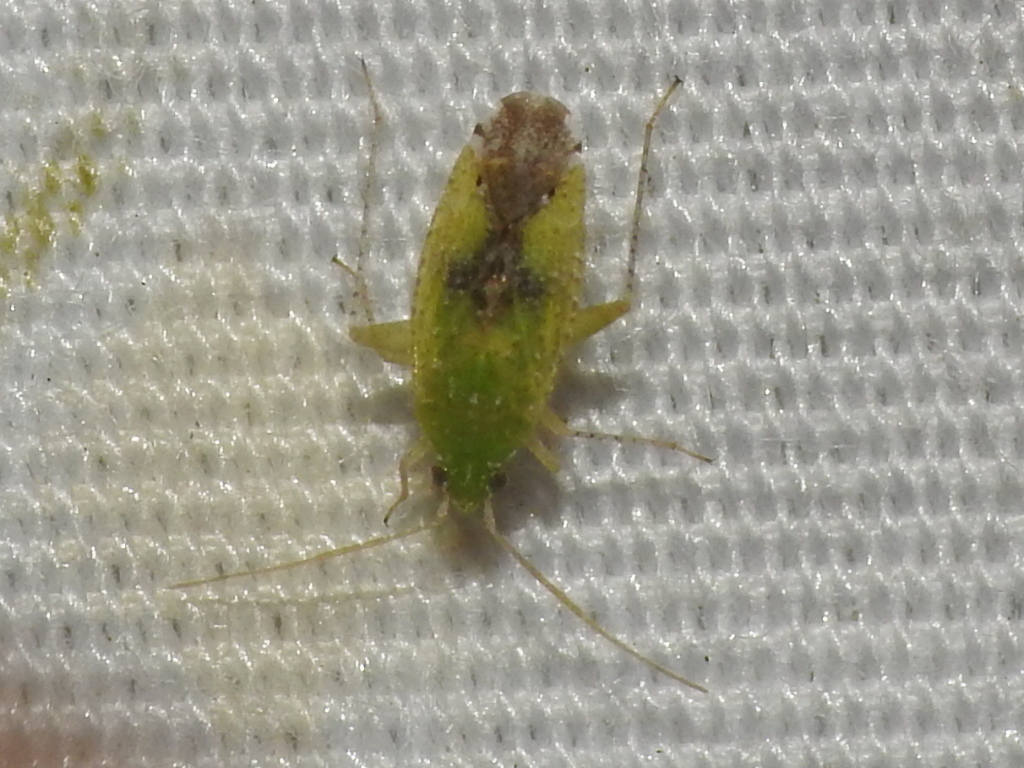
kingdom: Animalia
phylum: Arthropoda
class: Insecta
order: Hemiptera
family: Miridae
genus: Keltonia
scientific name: Keltonia tuckeri
